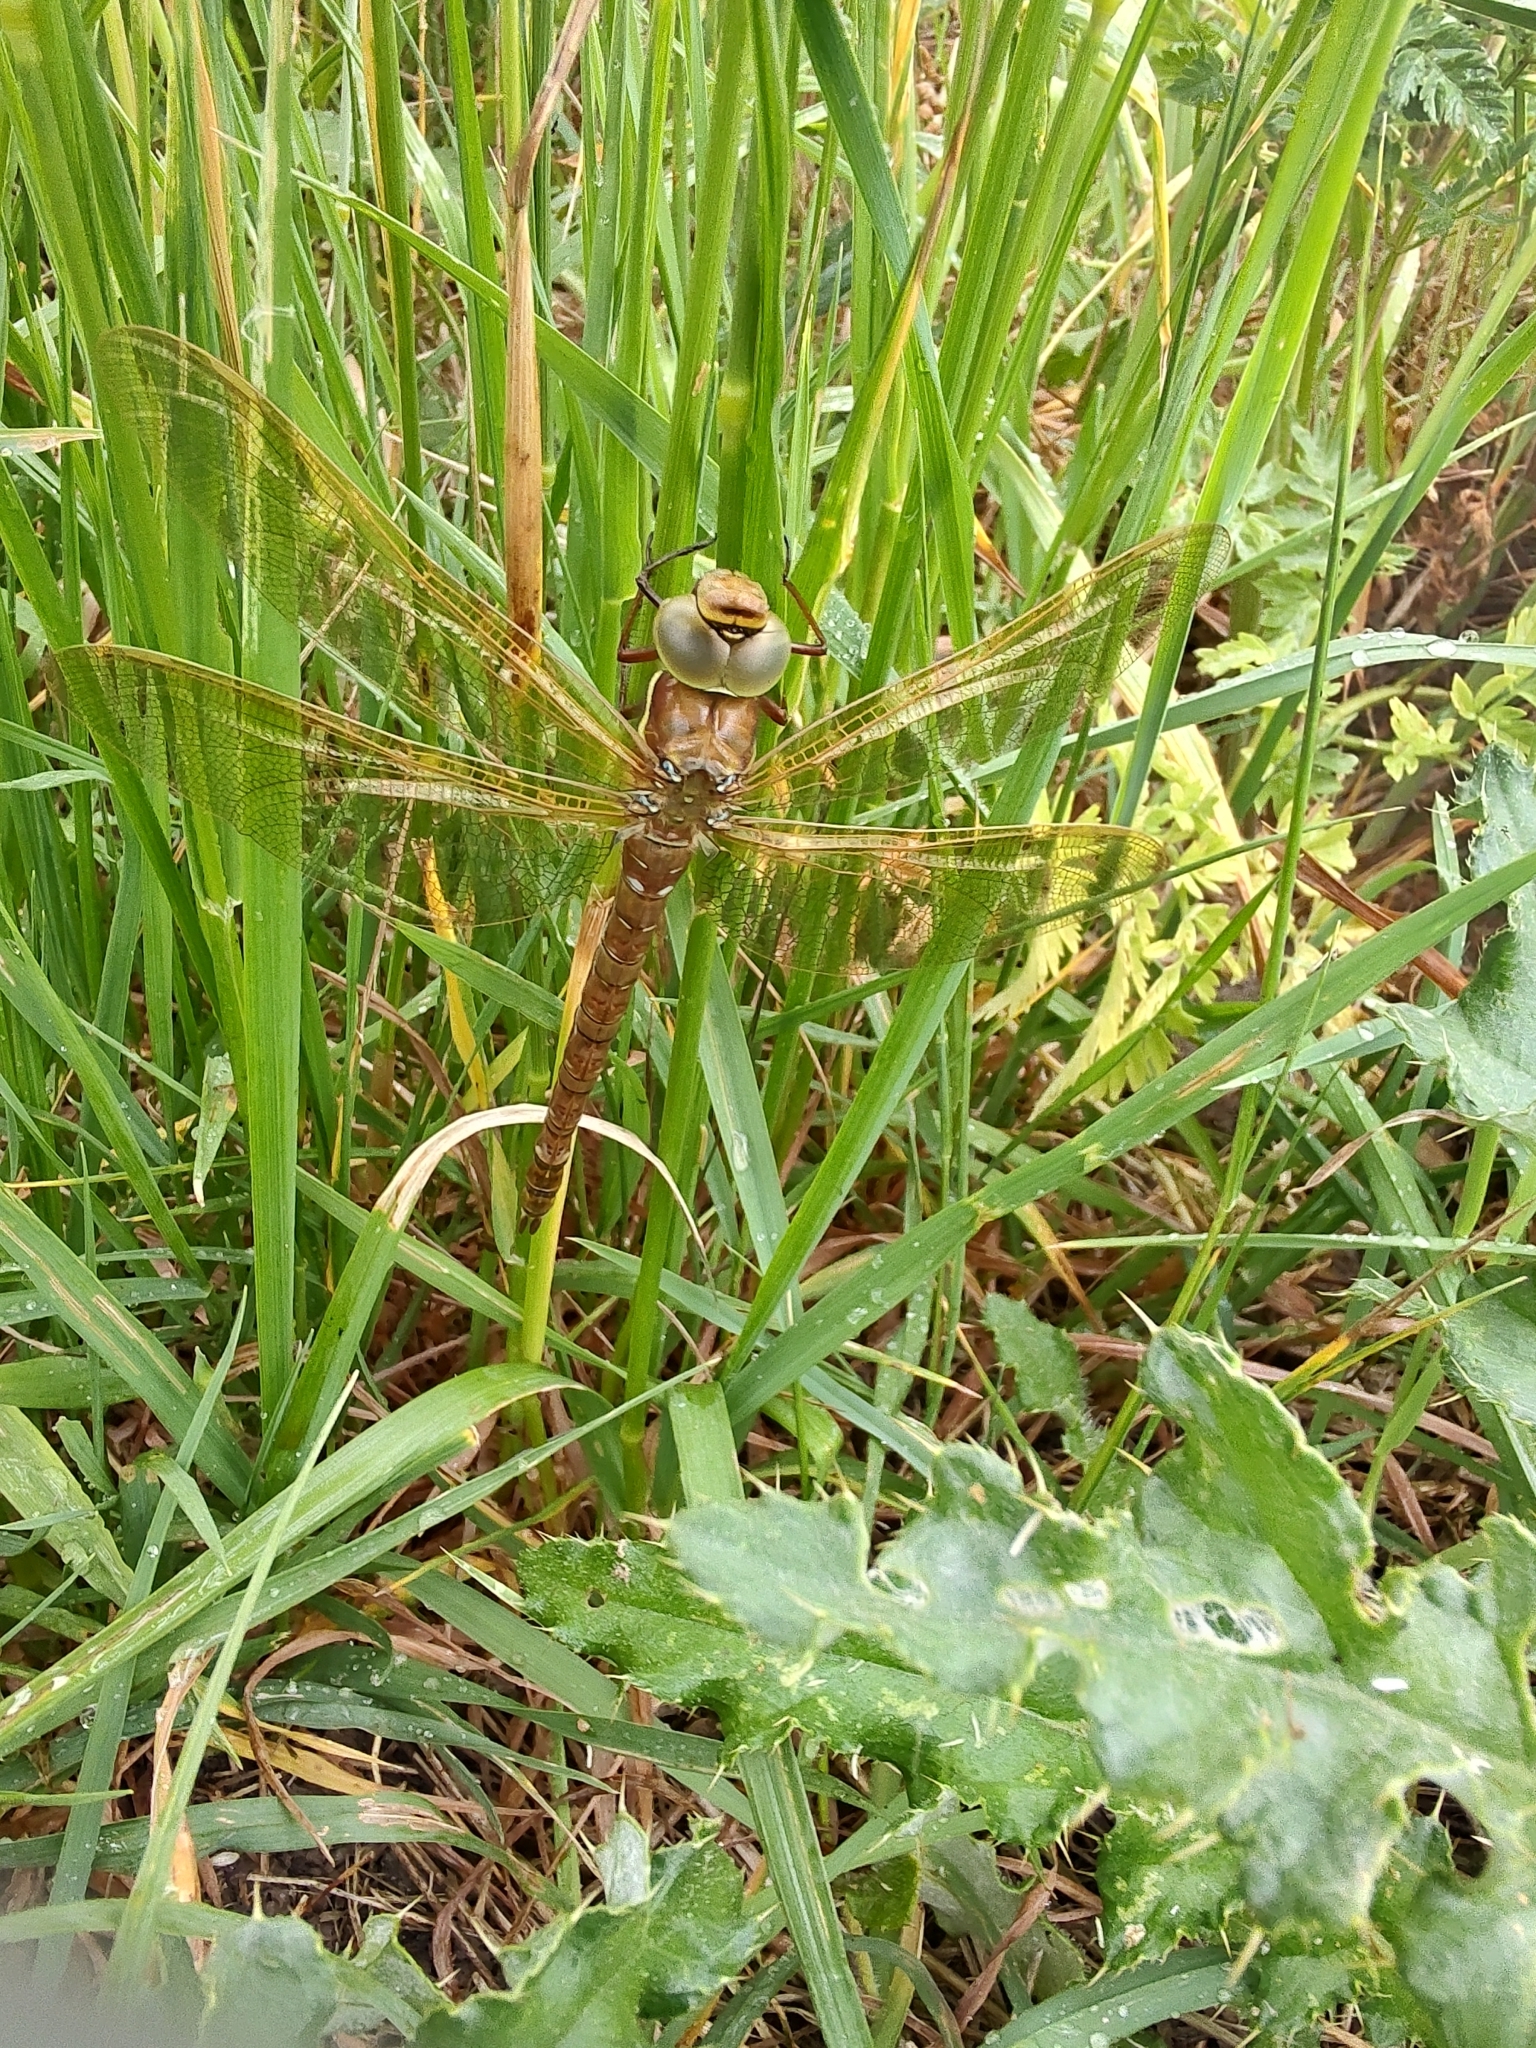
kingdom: Animalia
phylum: Arthropoda
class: Insecta
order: Odonata
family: Aeshnidae
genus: Aeshna
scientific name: Aeshna grandis
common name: Brown hawker
